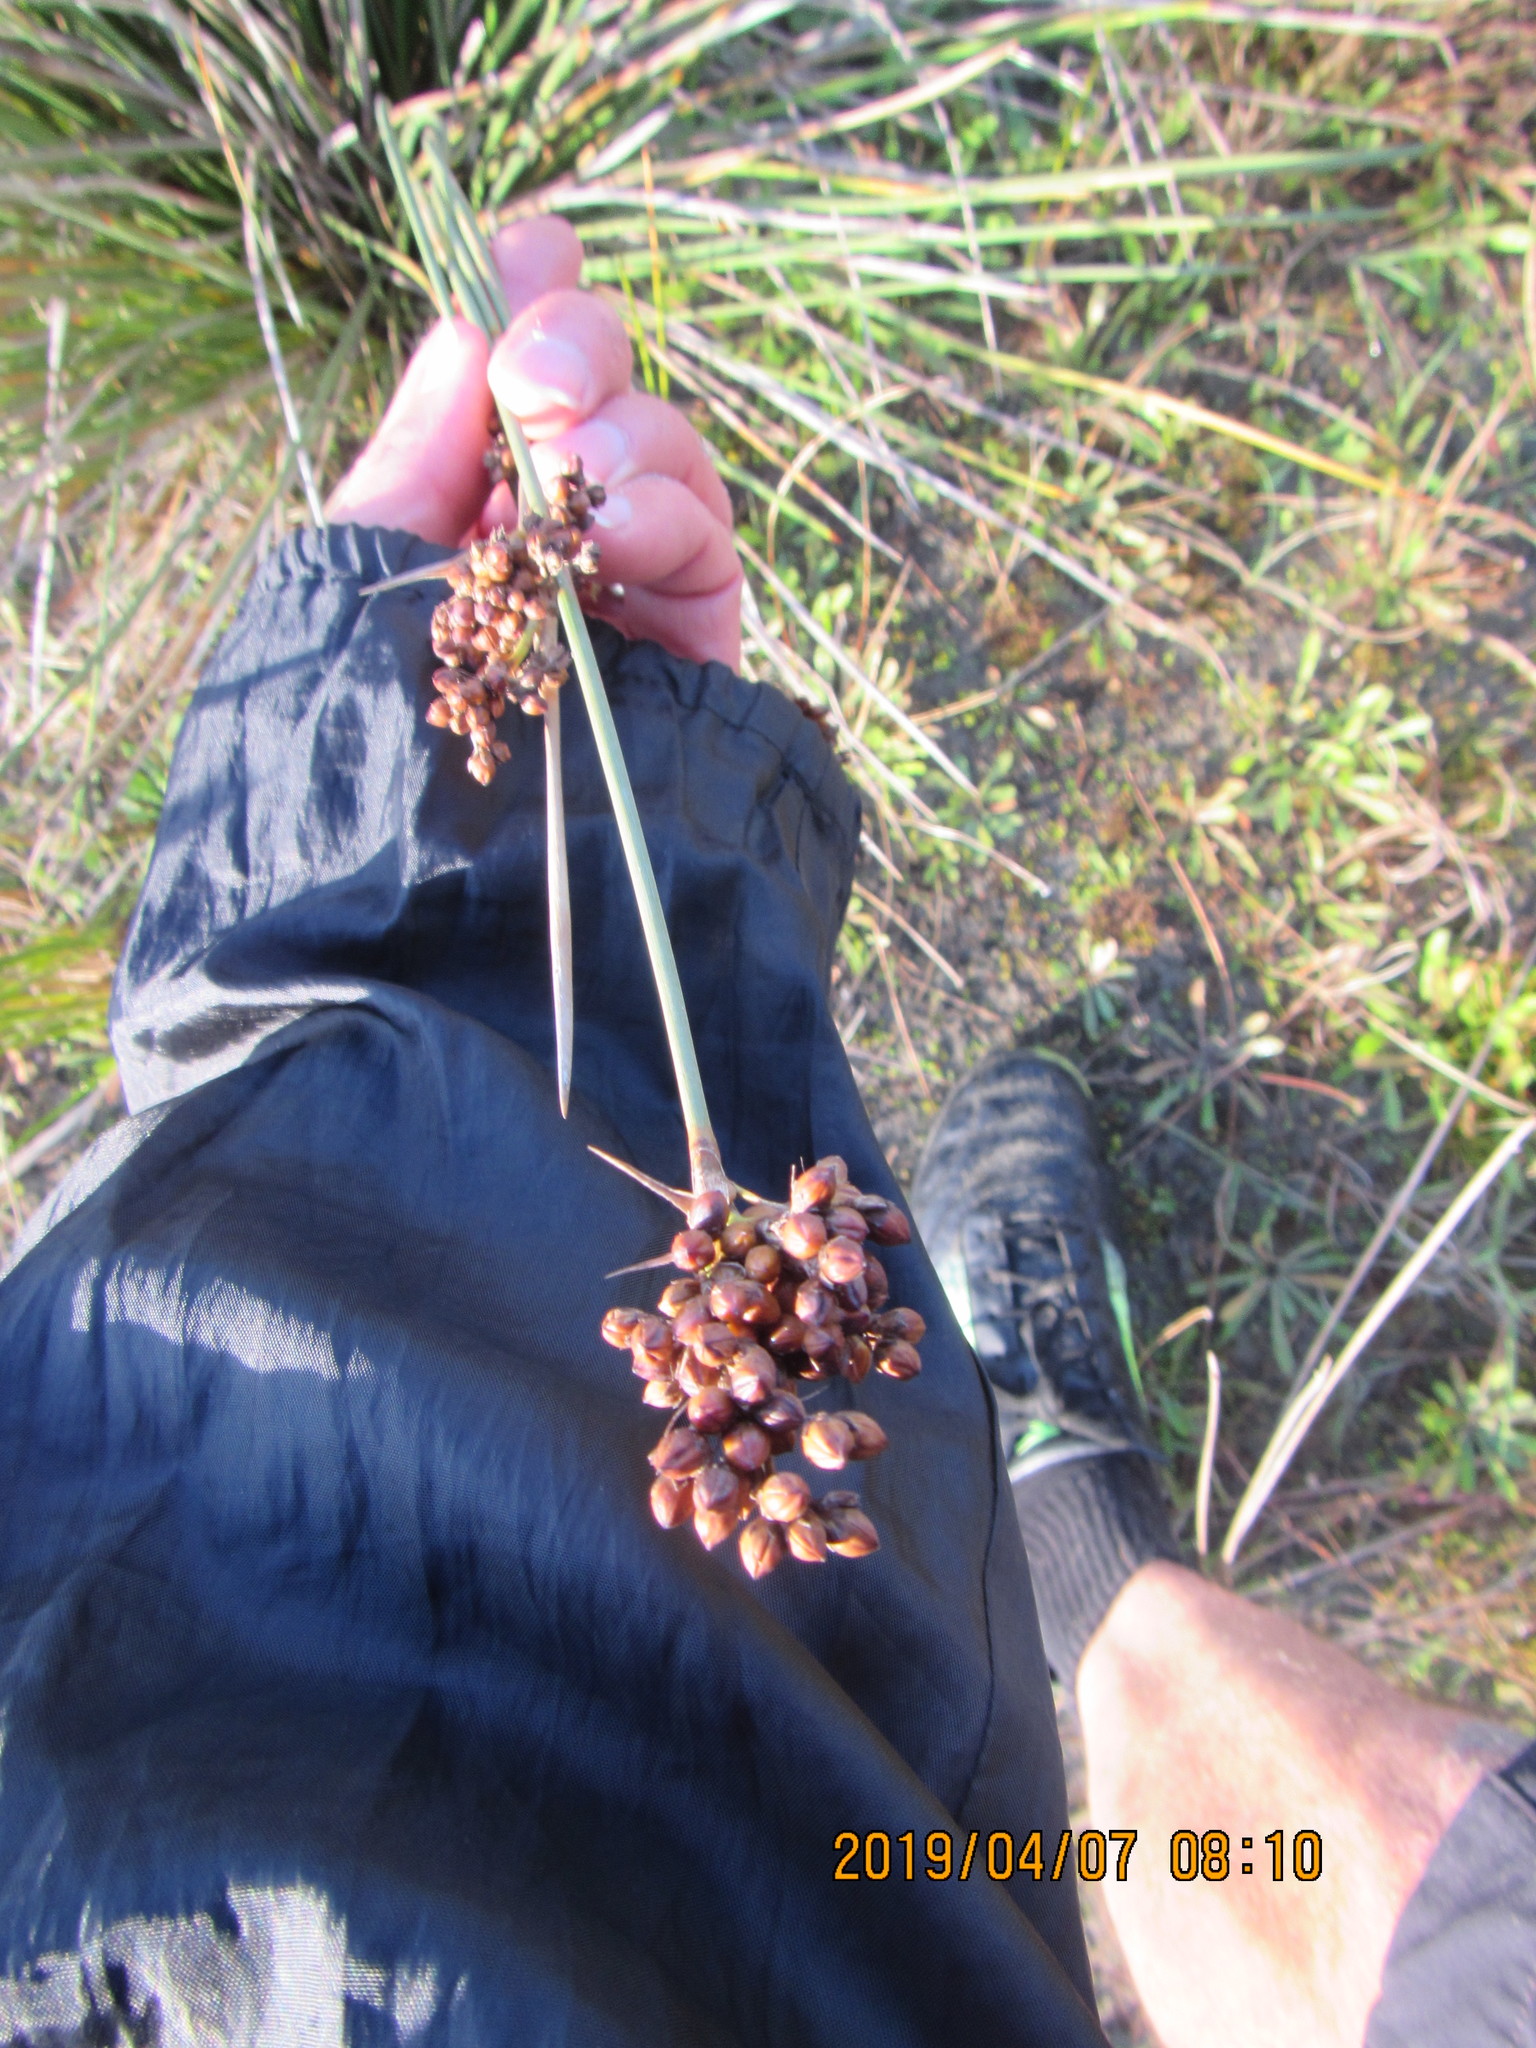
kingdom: Plantae
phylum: Tracheophyta
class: Liliopsida
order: Poales
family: Juncaceae
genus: Juncus
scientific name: Juncus acutus
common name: Sharp rush
